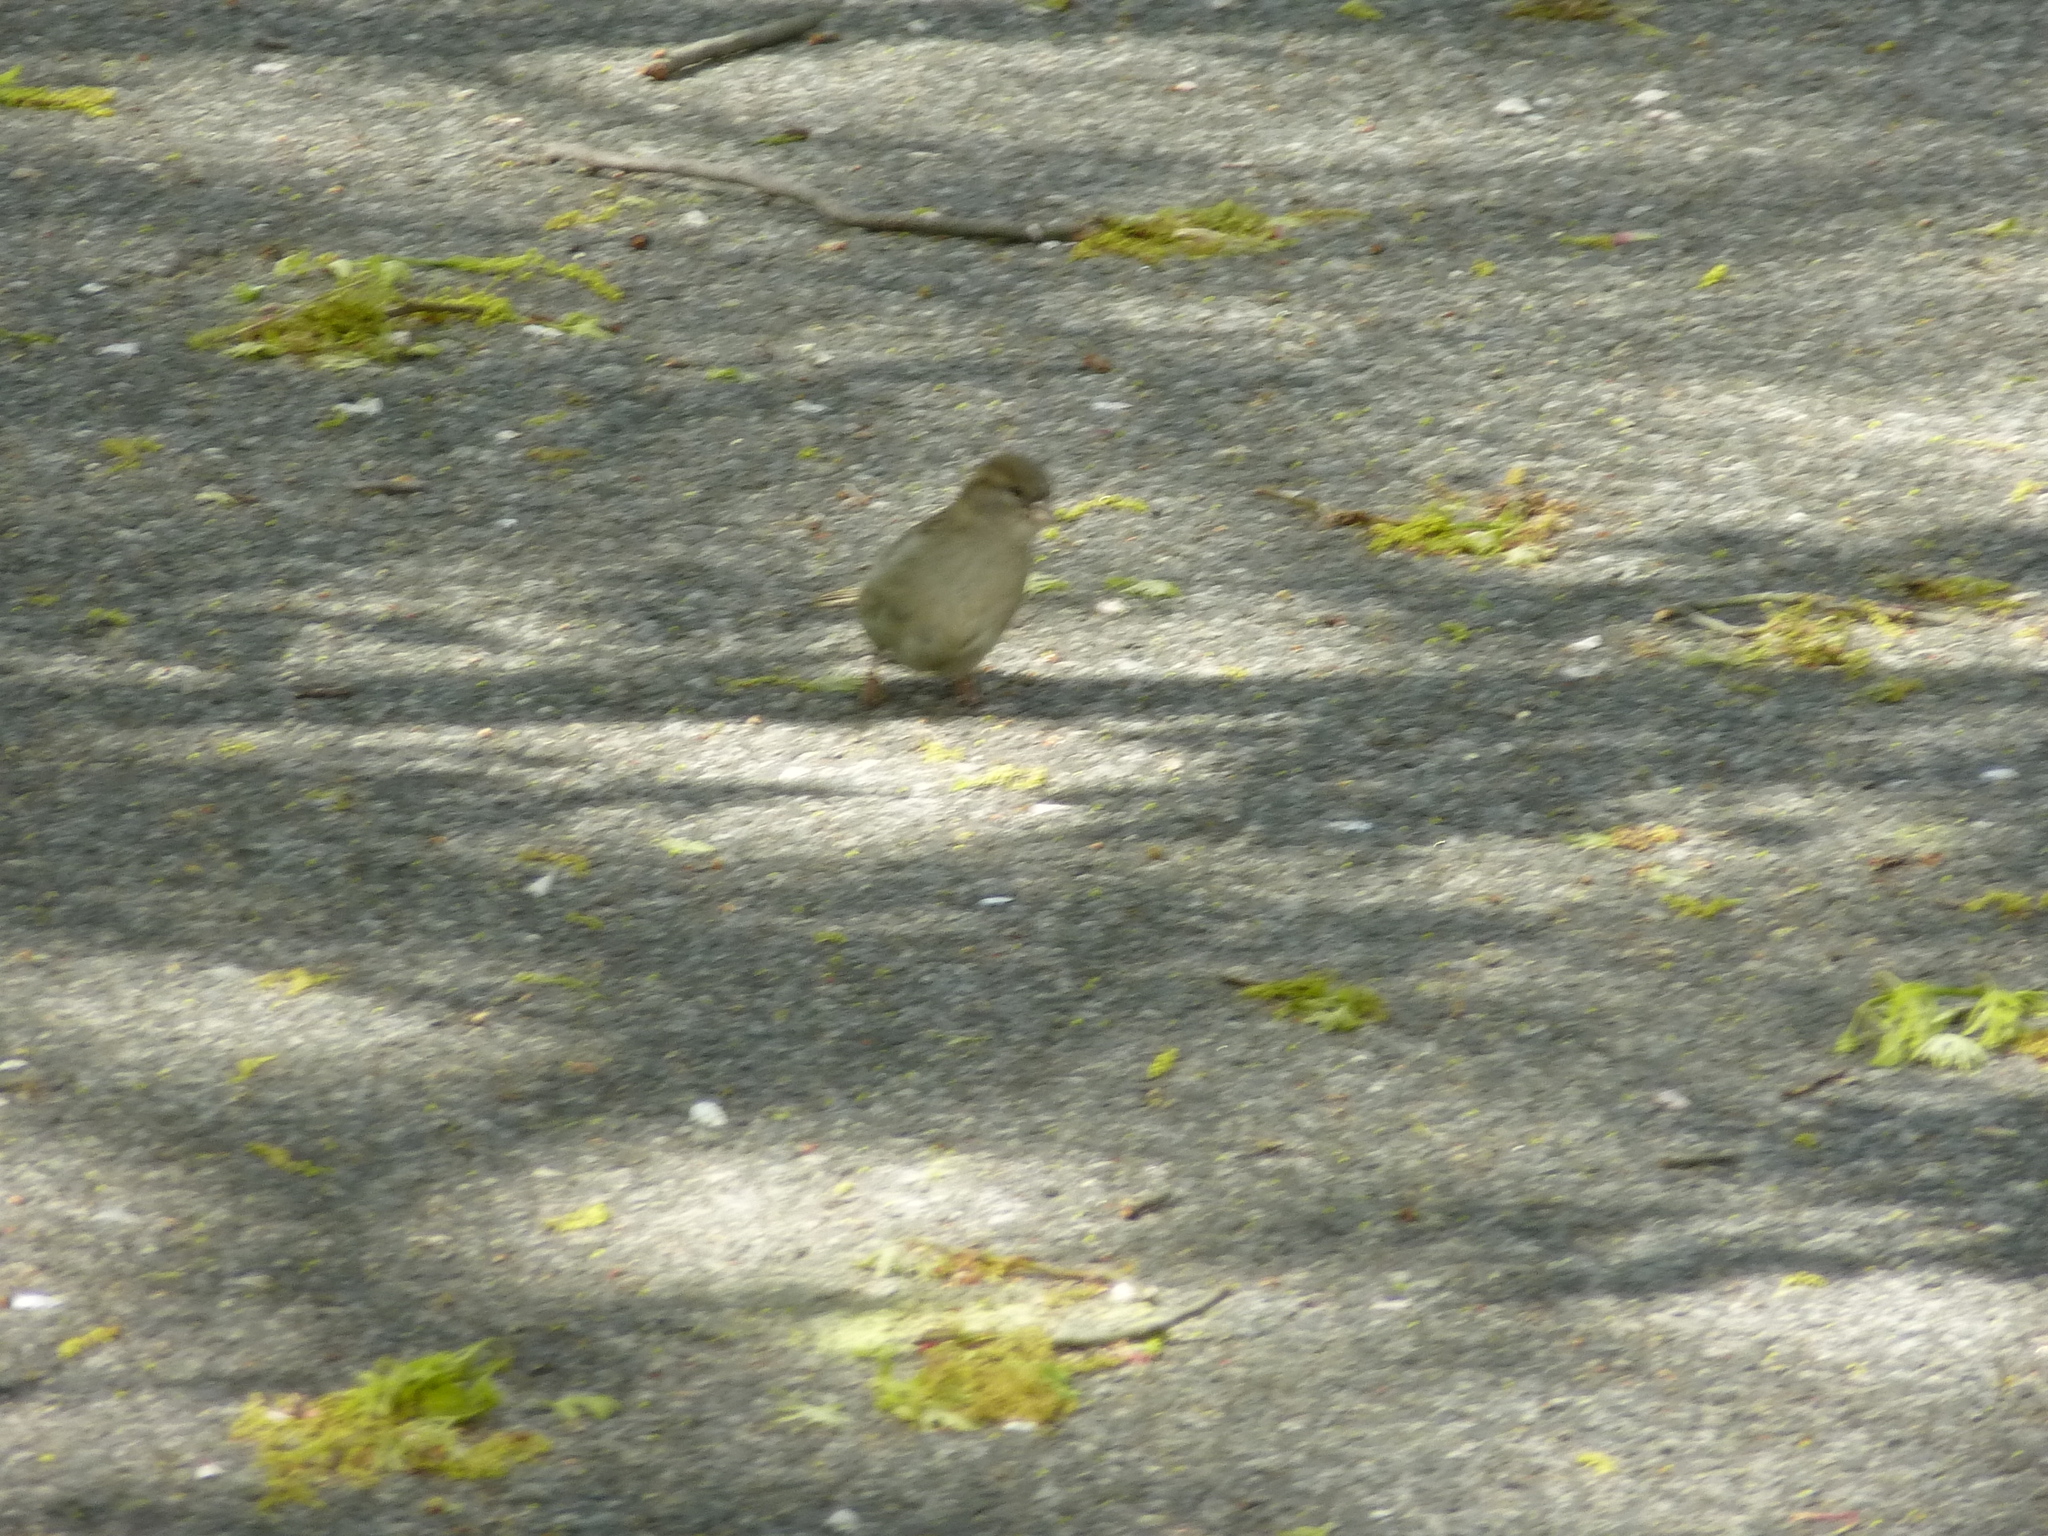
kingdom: Animalia
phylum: Chordata
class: Aves
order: Passeriformes
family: Passeridae
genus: Passer
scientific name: Passer domesticus
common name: House sparrow
